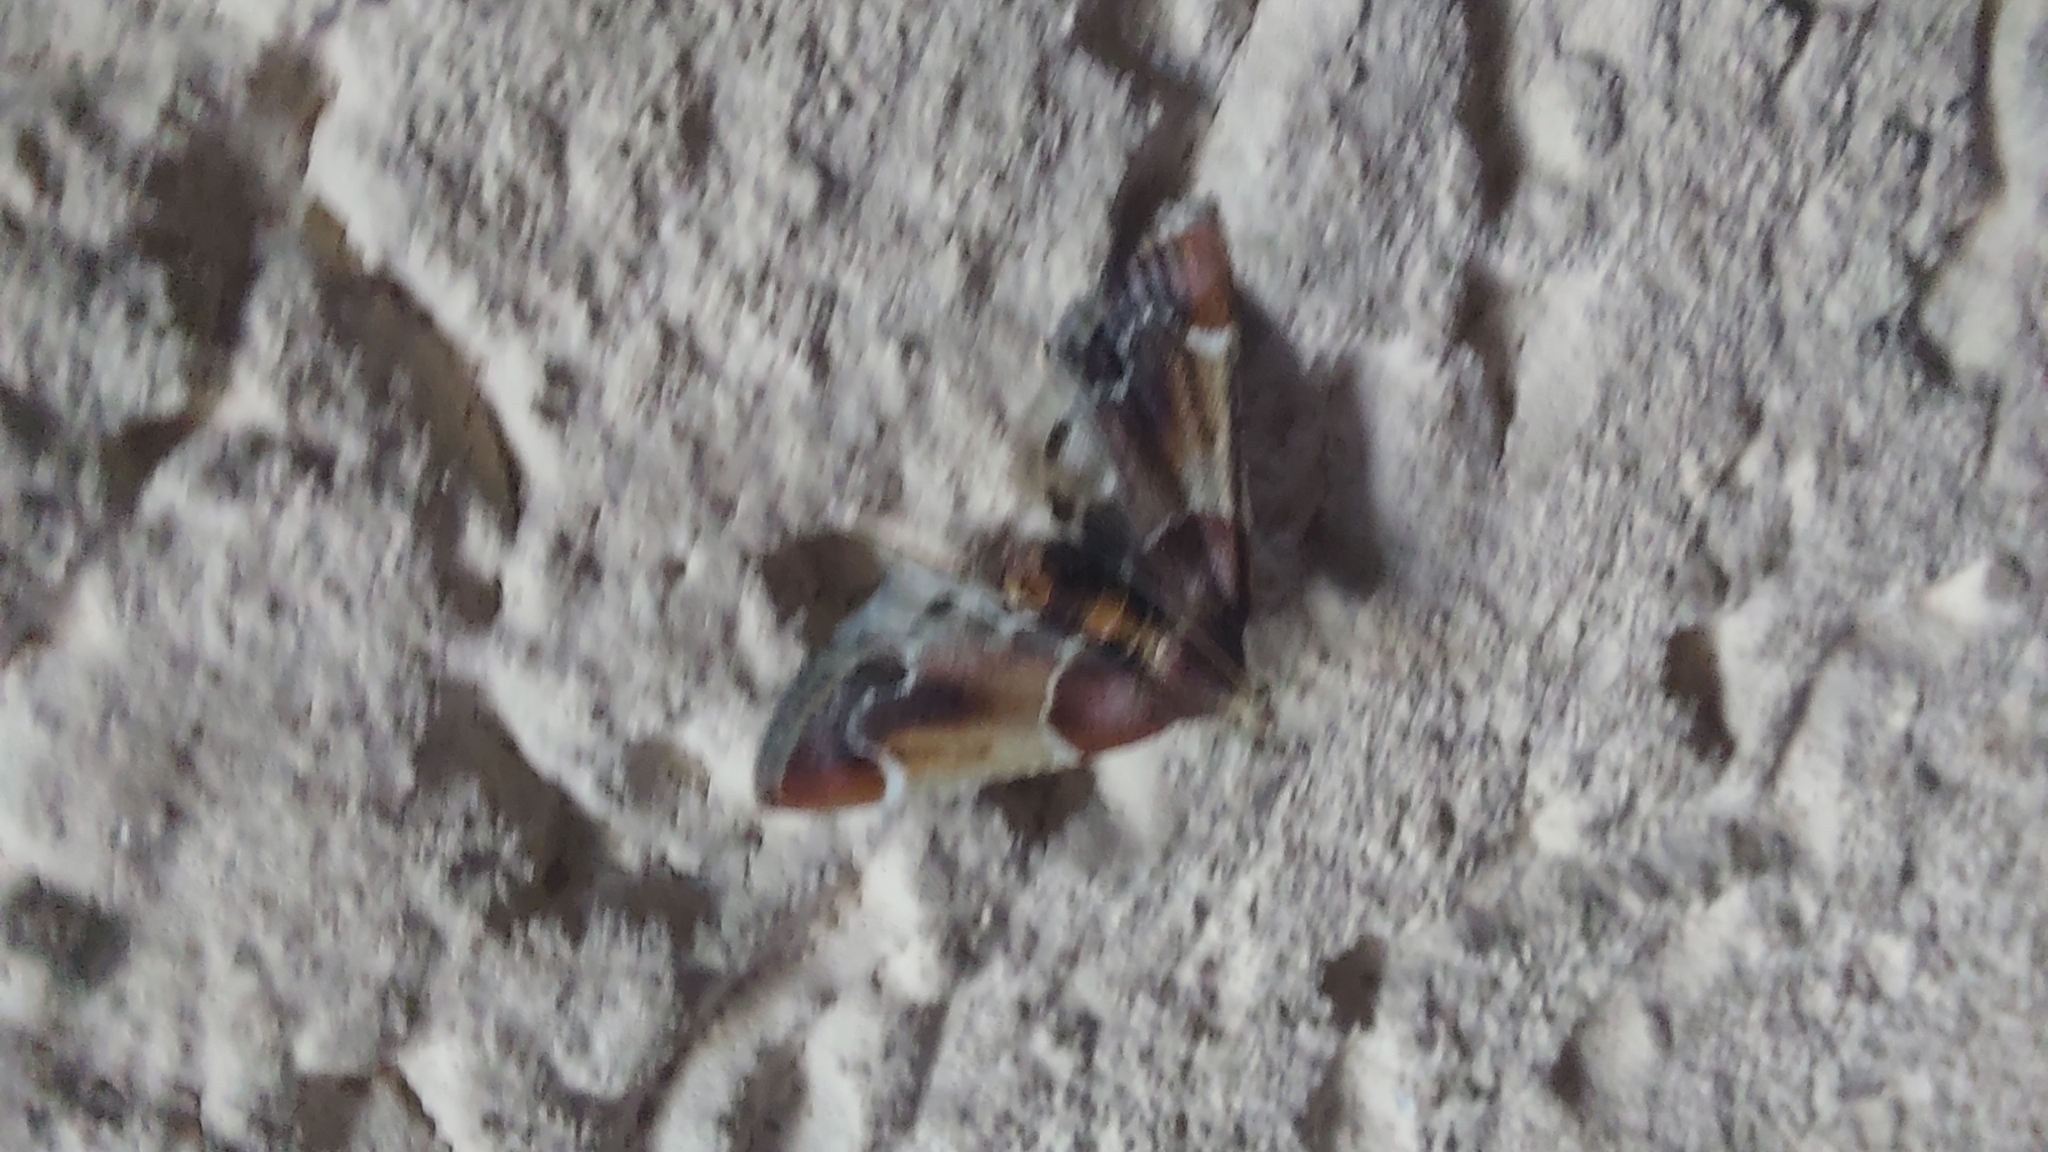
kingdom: Animalia
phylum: Arthropoda
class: Insecta
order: Lepidoptera
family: Pyralidae
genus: Pyralis
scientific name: Pyralis farinalis
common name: Meal moth
